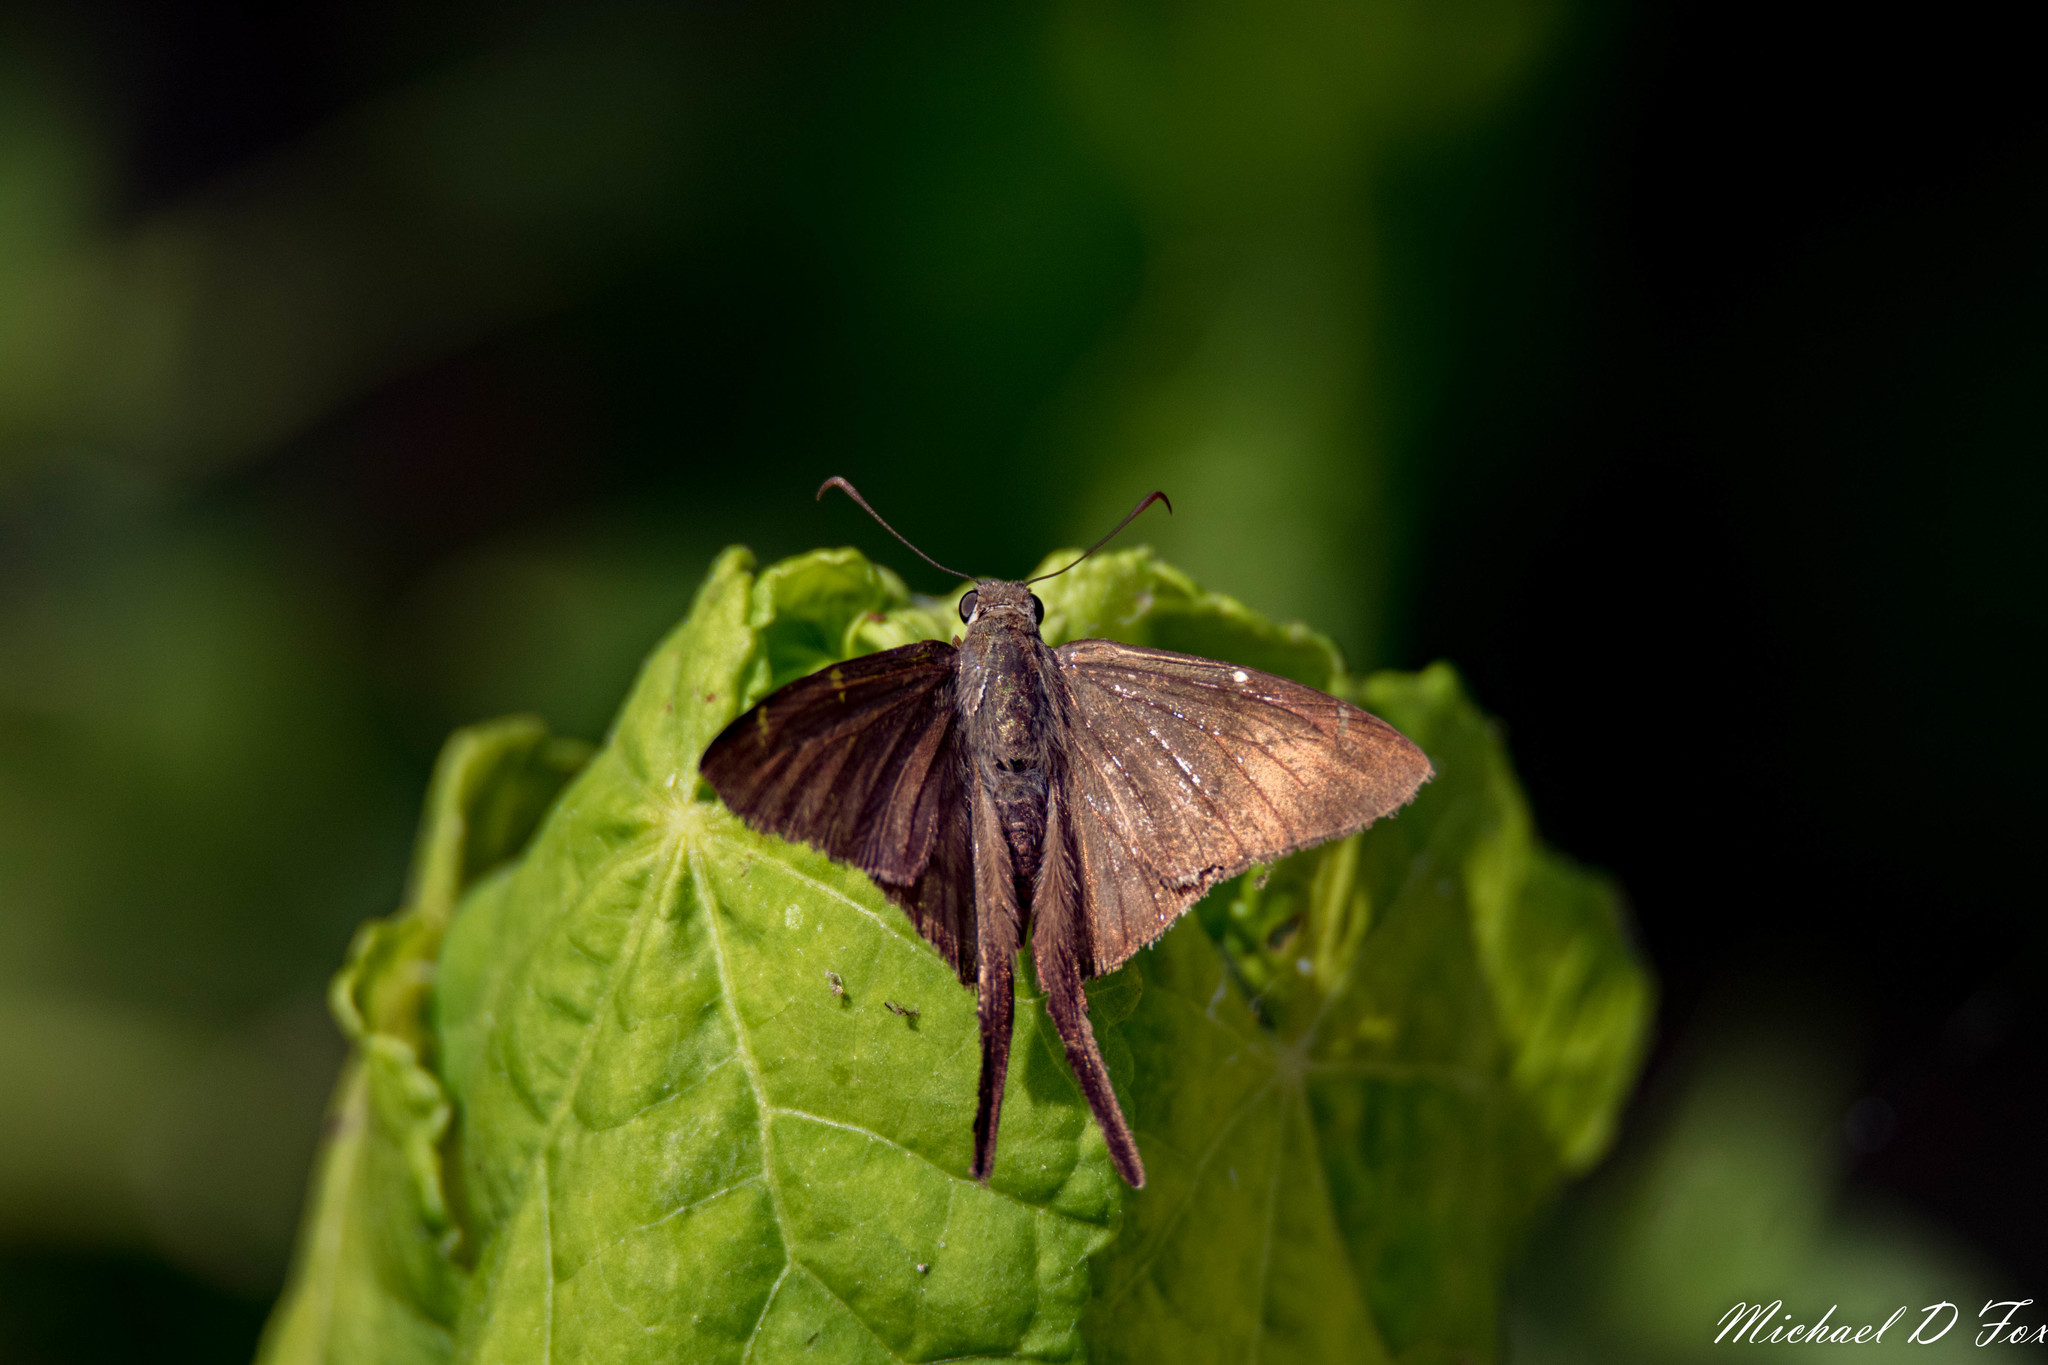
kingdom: Animalia
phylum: Arthropoda
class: Insecta
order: Lepidoptera
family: Hesperiidae
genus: Urbanus
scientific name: Urbanus procne
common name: Brown longtail
